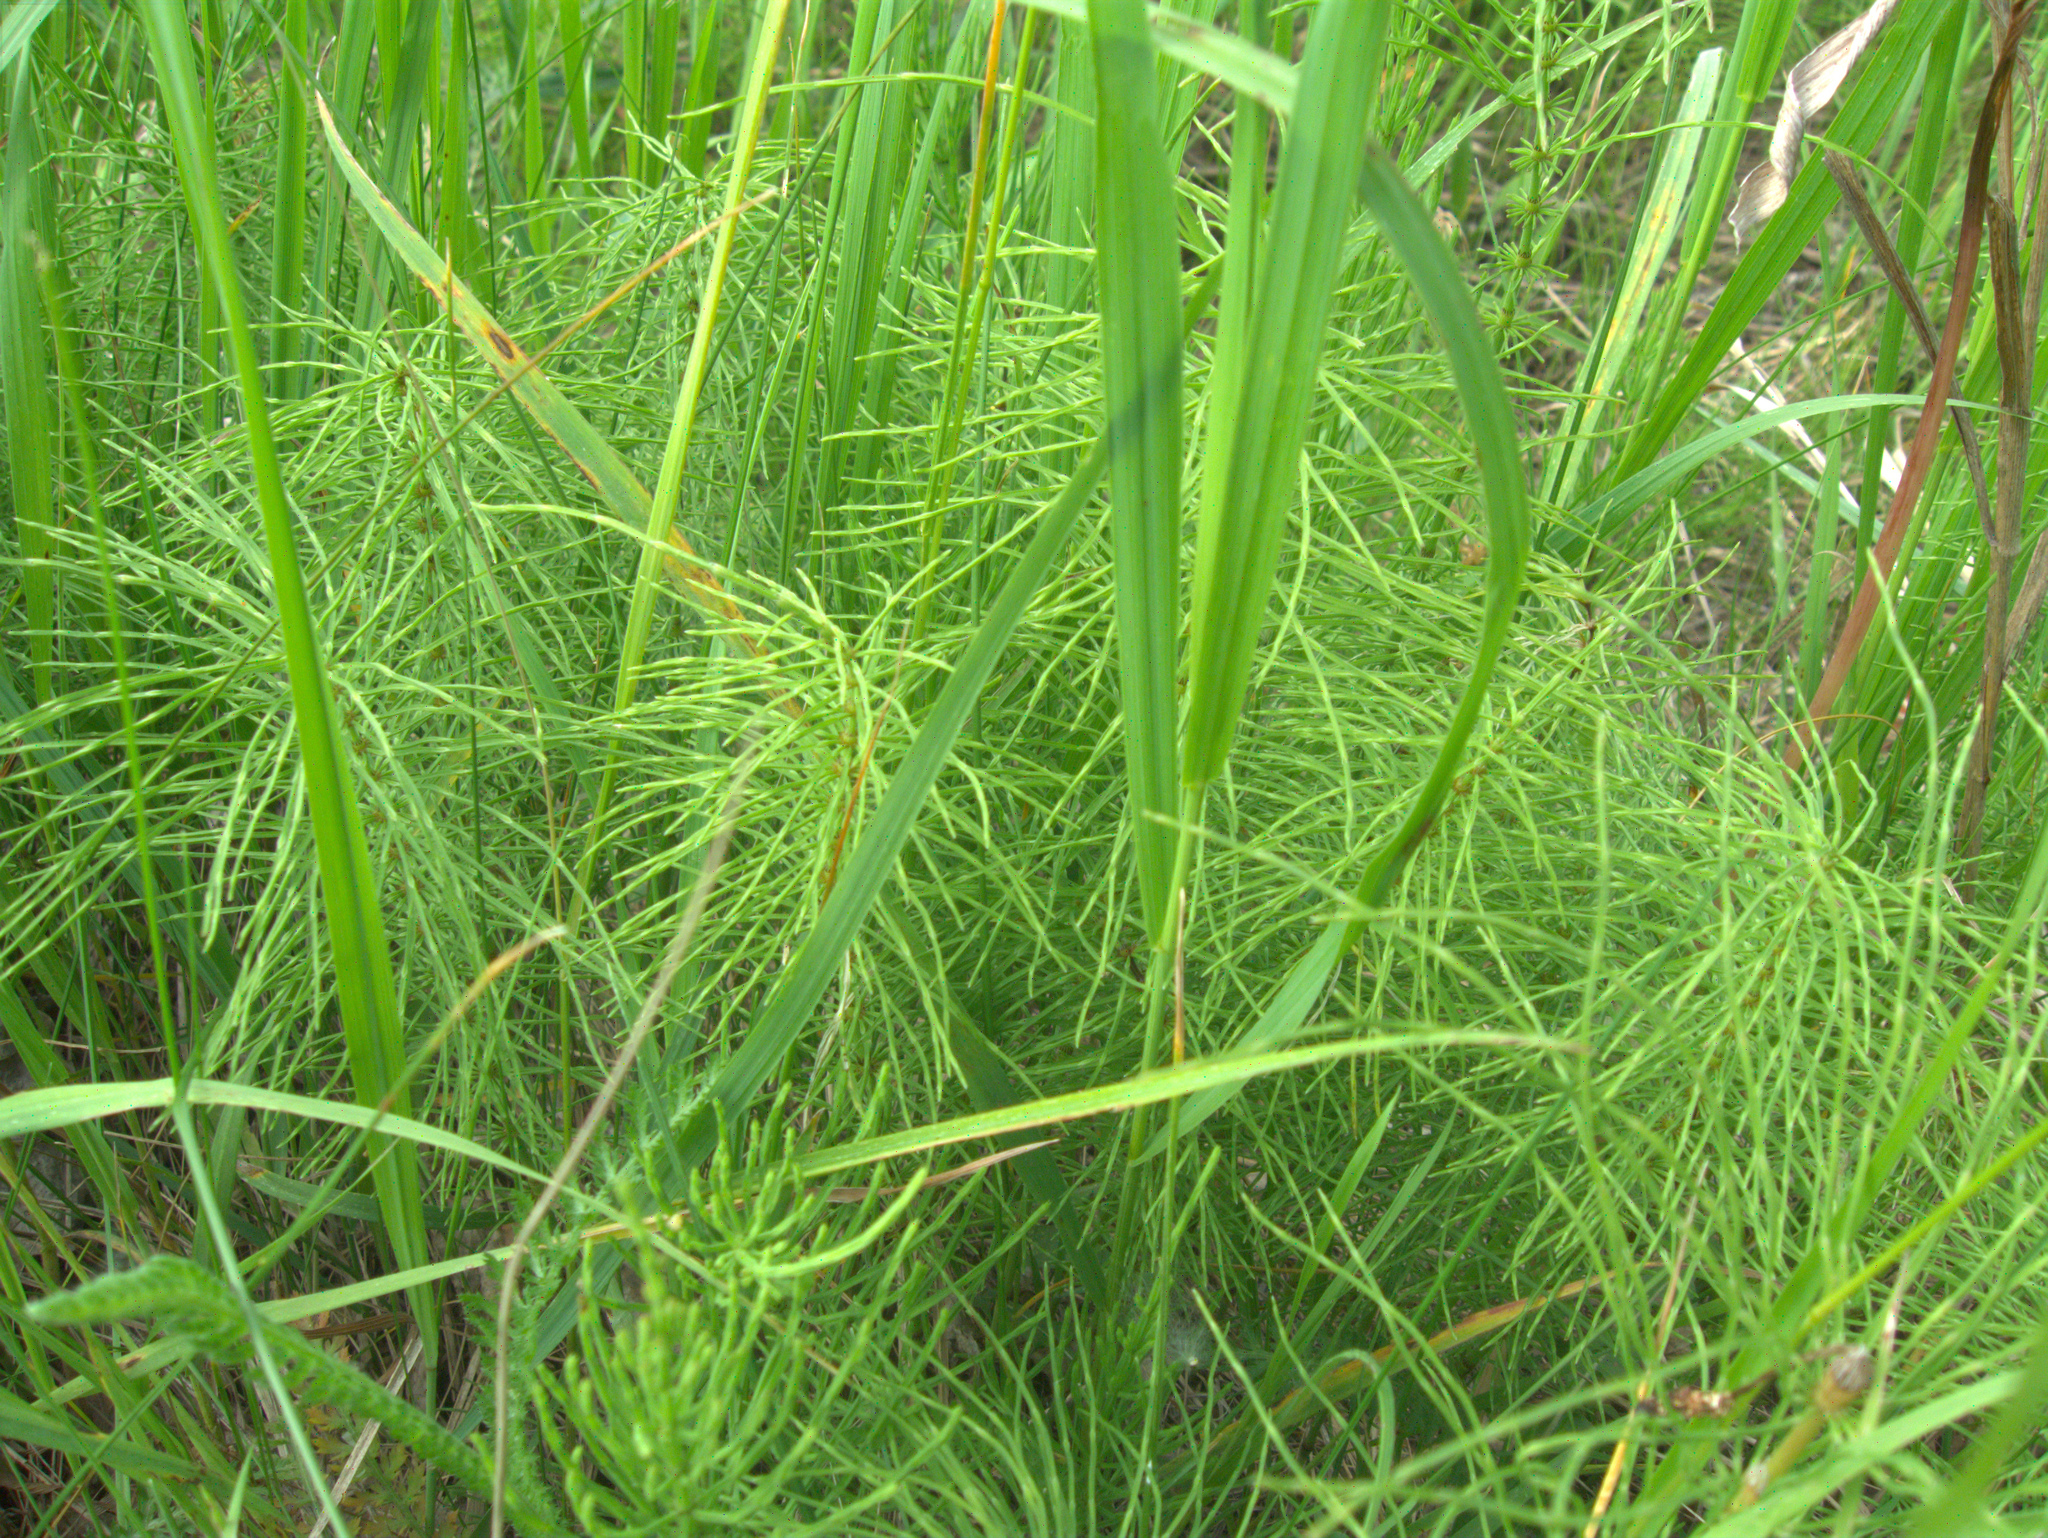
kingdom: Plantae
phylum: Tracheophyta
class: Polypodiopsida
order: Equisetales
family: Equisetaceae
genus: Equisetum
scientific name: Equisetum pratense
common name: Meadow horsetail
